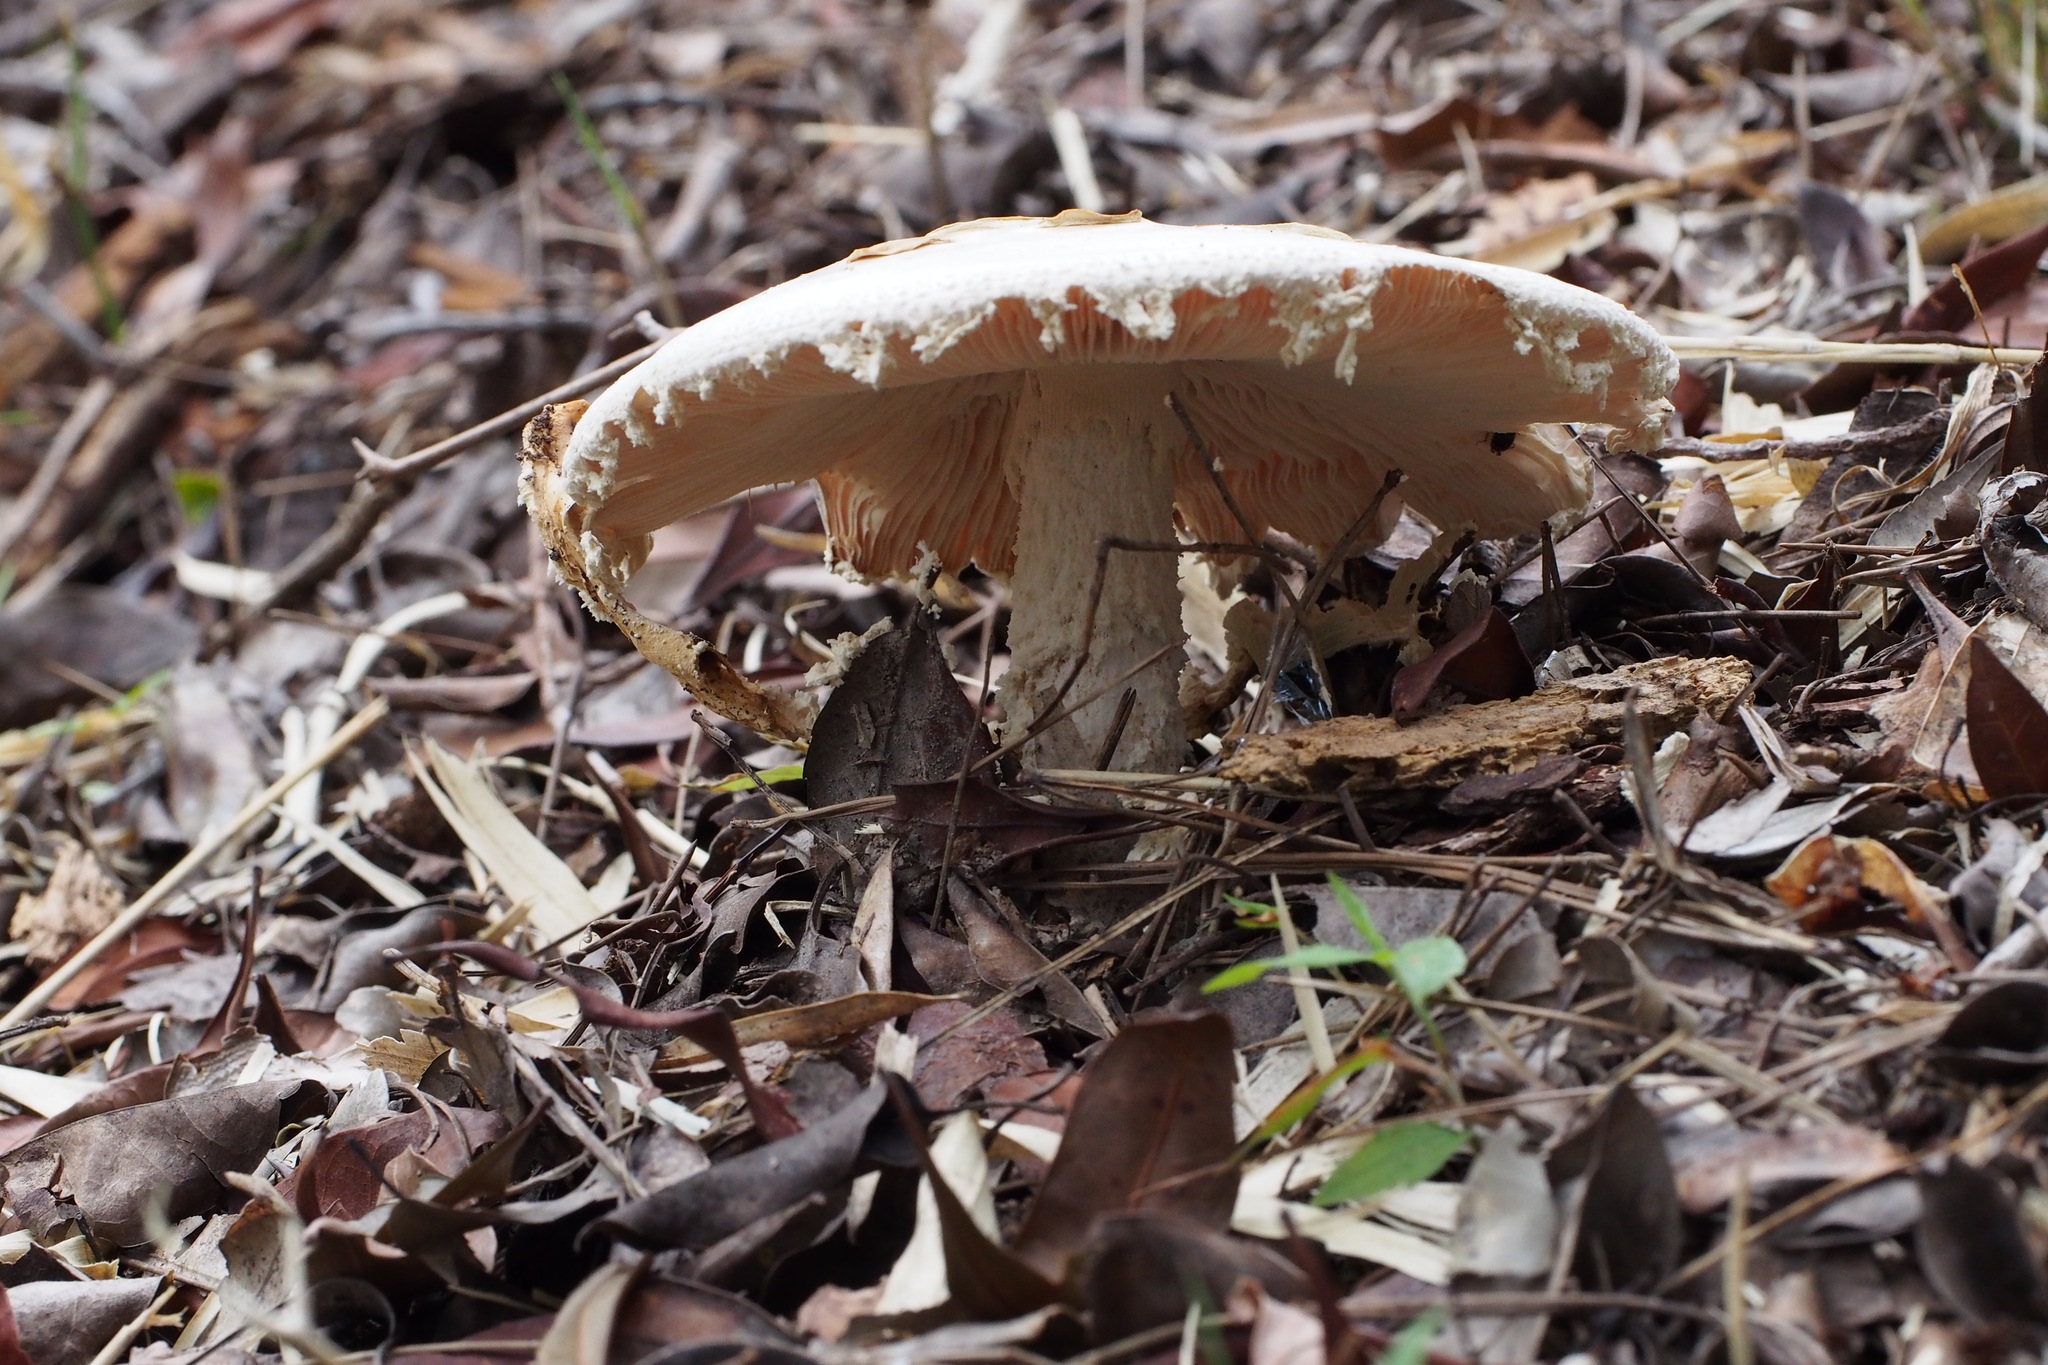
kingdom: Fungi
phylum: Basidiomycota
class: Agaricomycetes
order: Agaricales
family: Amanitaceae
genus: Amanita
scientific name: Amanita neo-ovoidea
